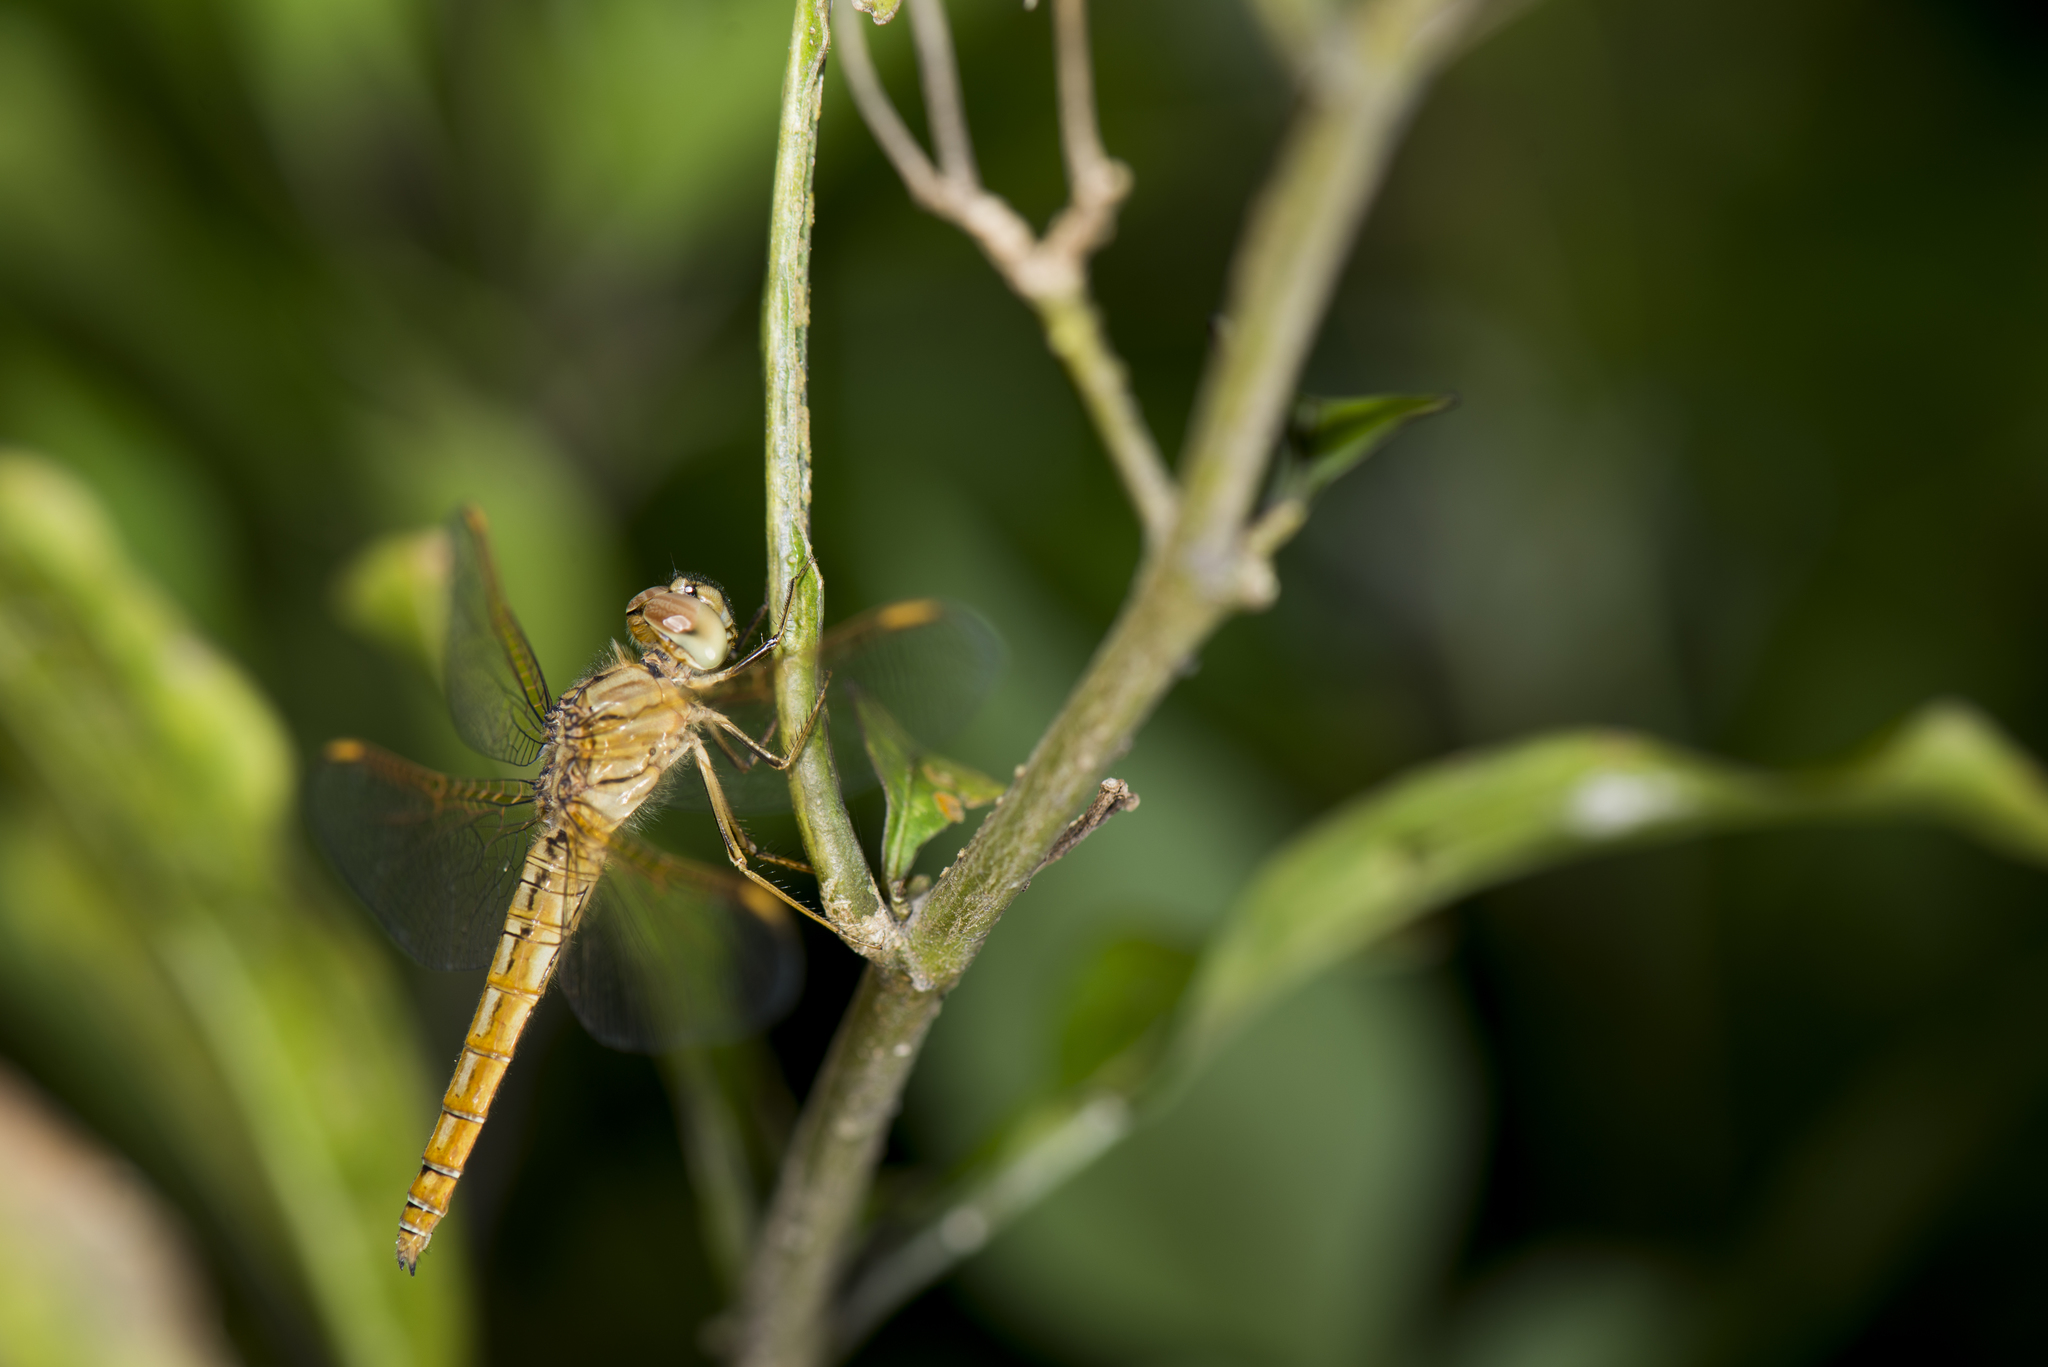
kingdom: Animalia
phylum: Arthropoda
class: Insecta
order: Odonata
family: Libellulidae
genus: Brachythemis
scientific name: Brachythemis contaminata
